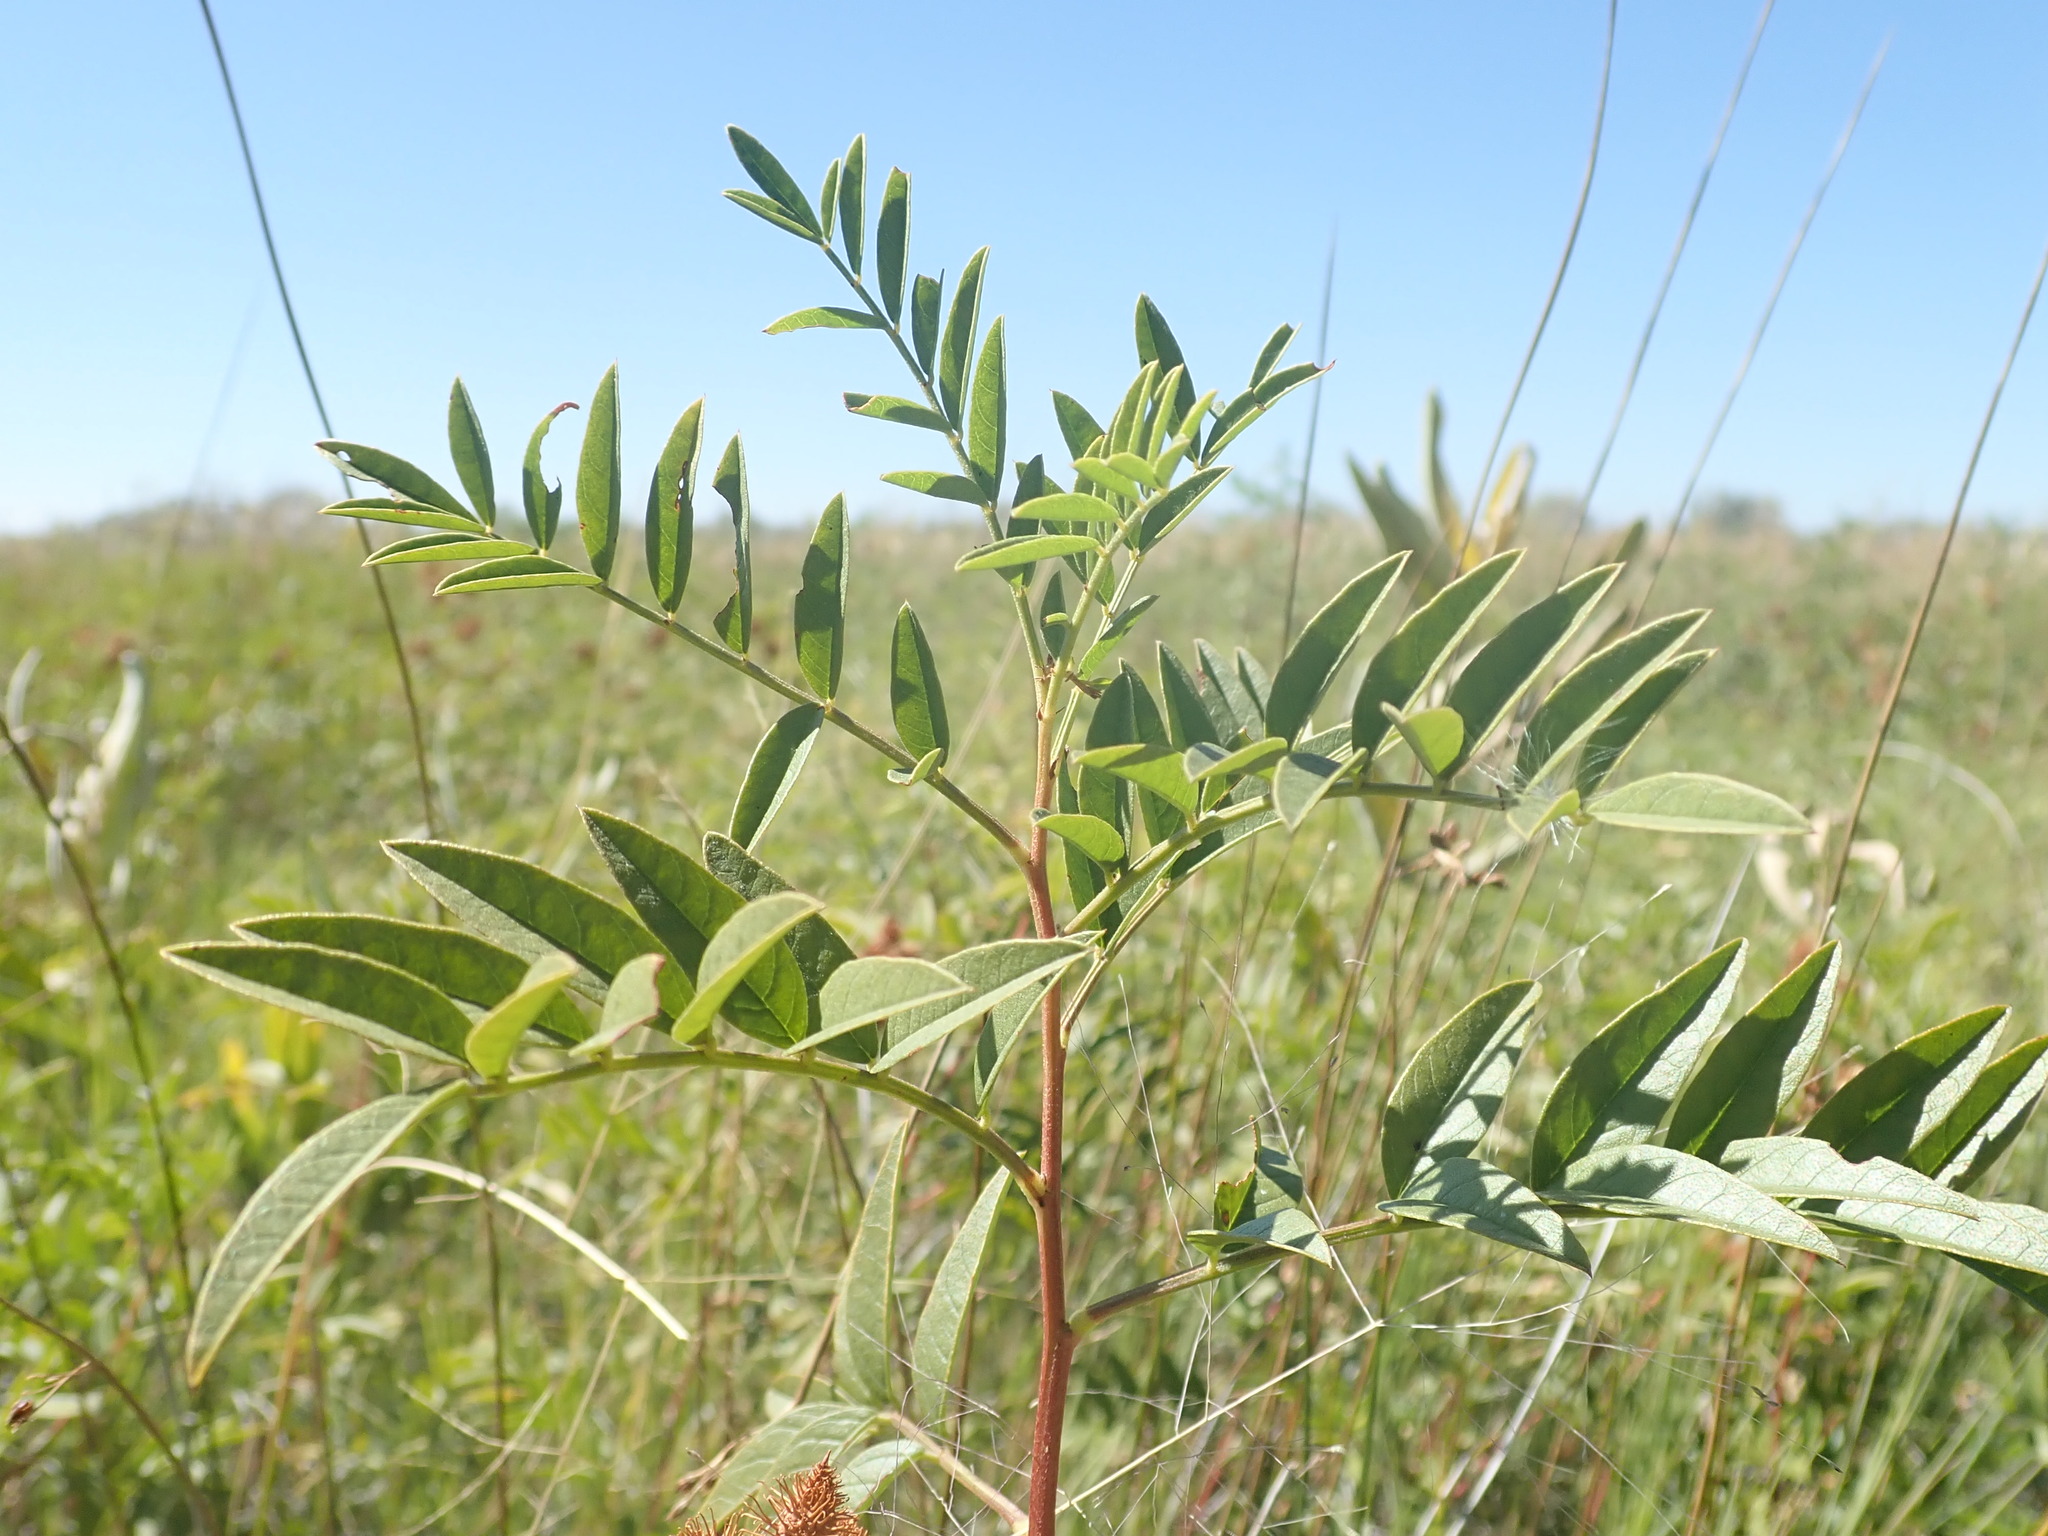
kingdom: Plantae
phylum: Tracheophyta
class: Magnoliopsida
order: Fabales
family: Fabaceae
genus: Glycyrrhiza
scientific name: Glycyrrhiza lepidota
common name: American liquorice
